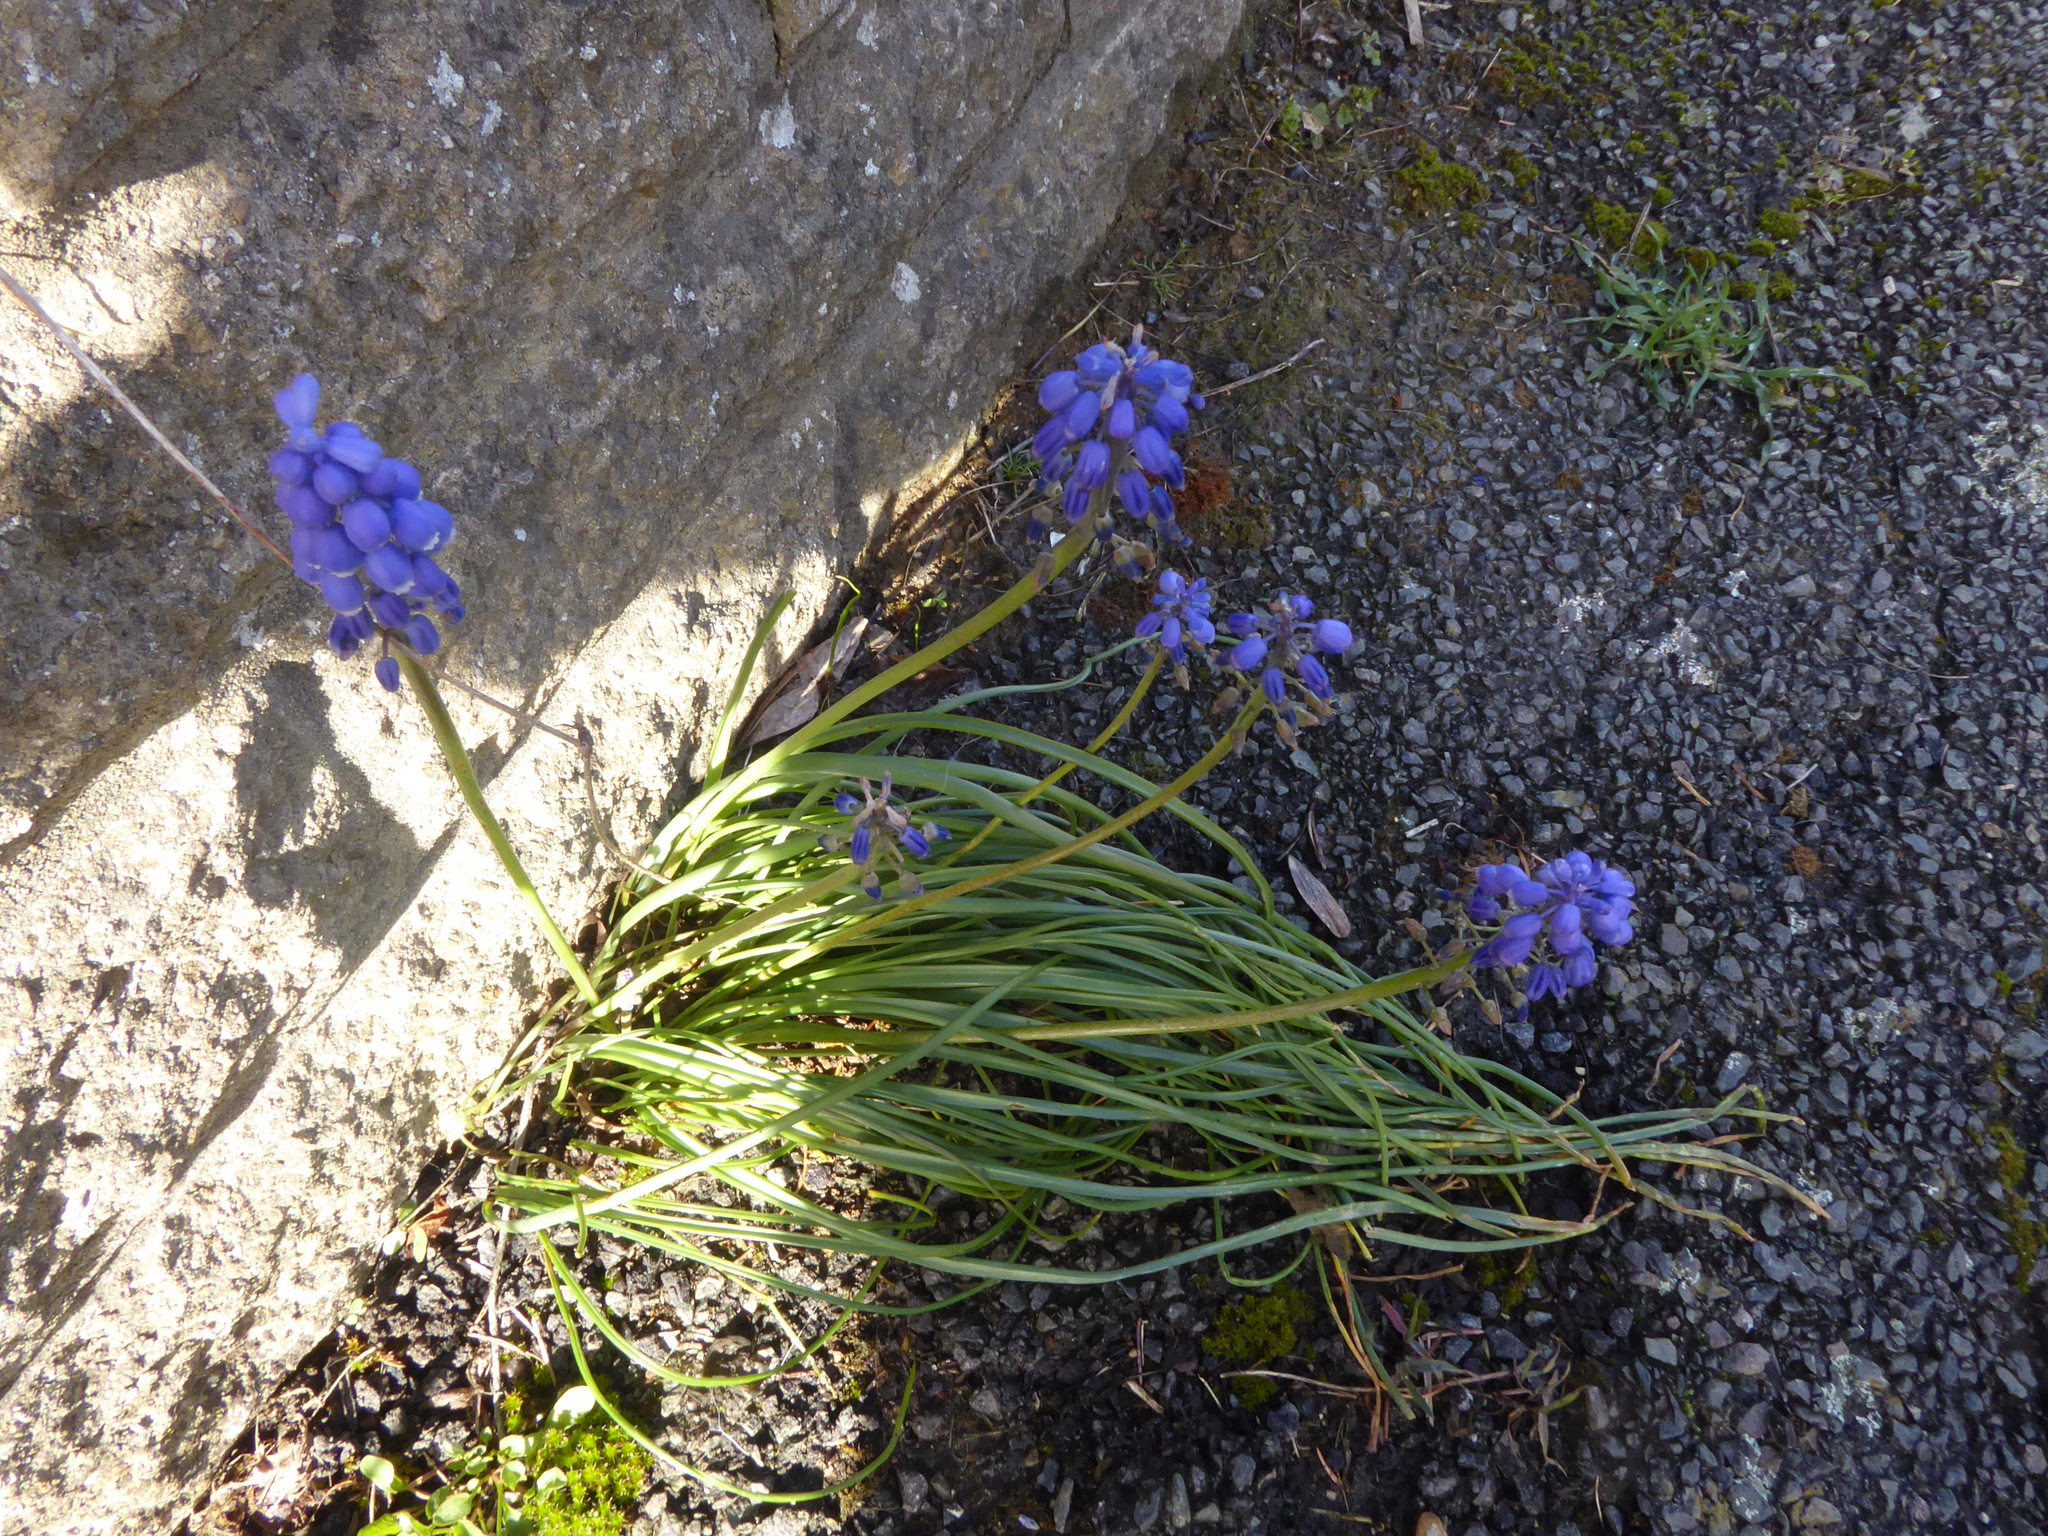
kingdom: Plantae
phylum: Tracheophyta
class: Liliopsida
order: Asparagales
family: Asparagaceae
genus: Muscari
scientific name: Muscari armeniacum
